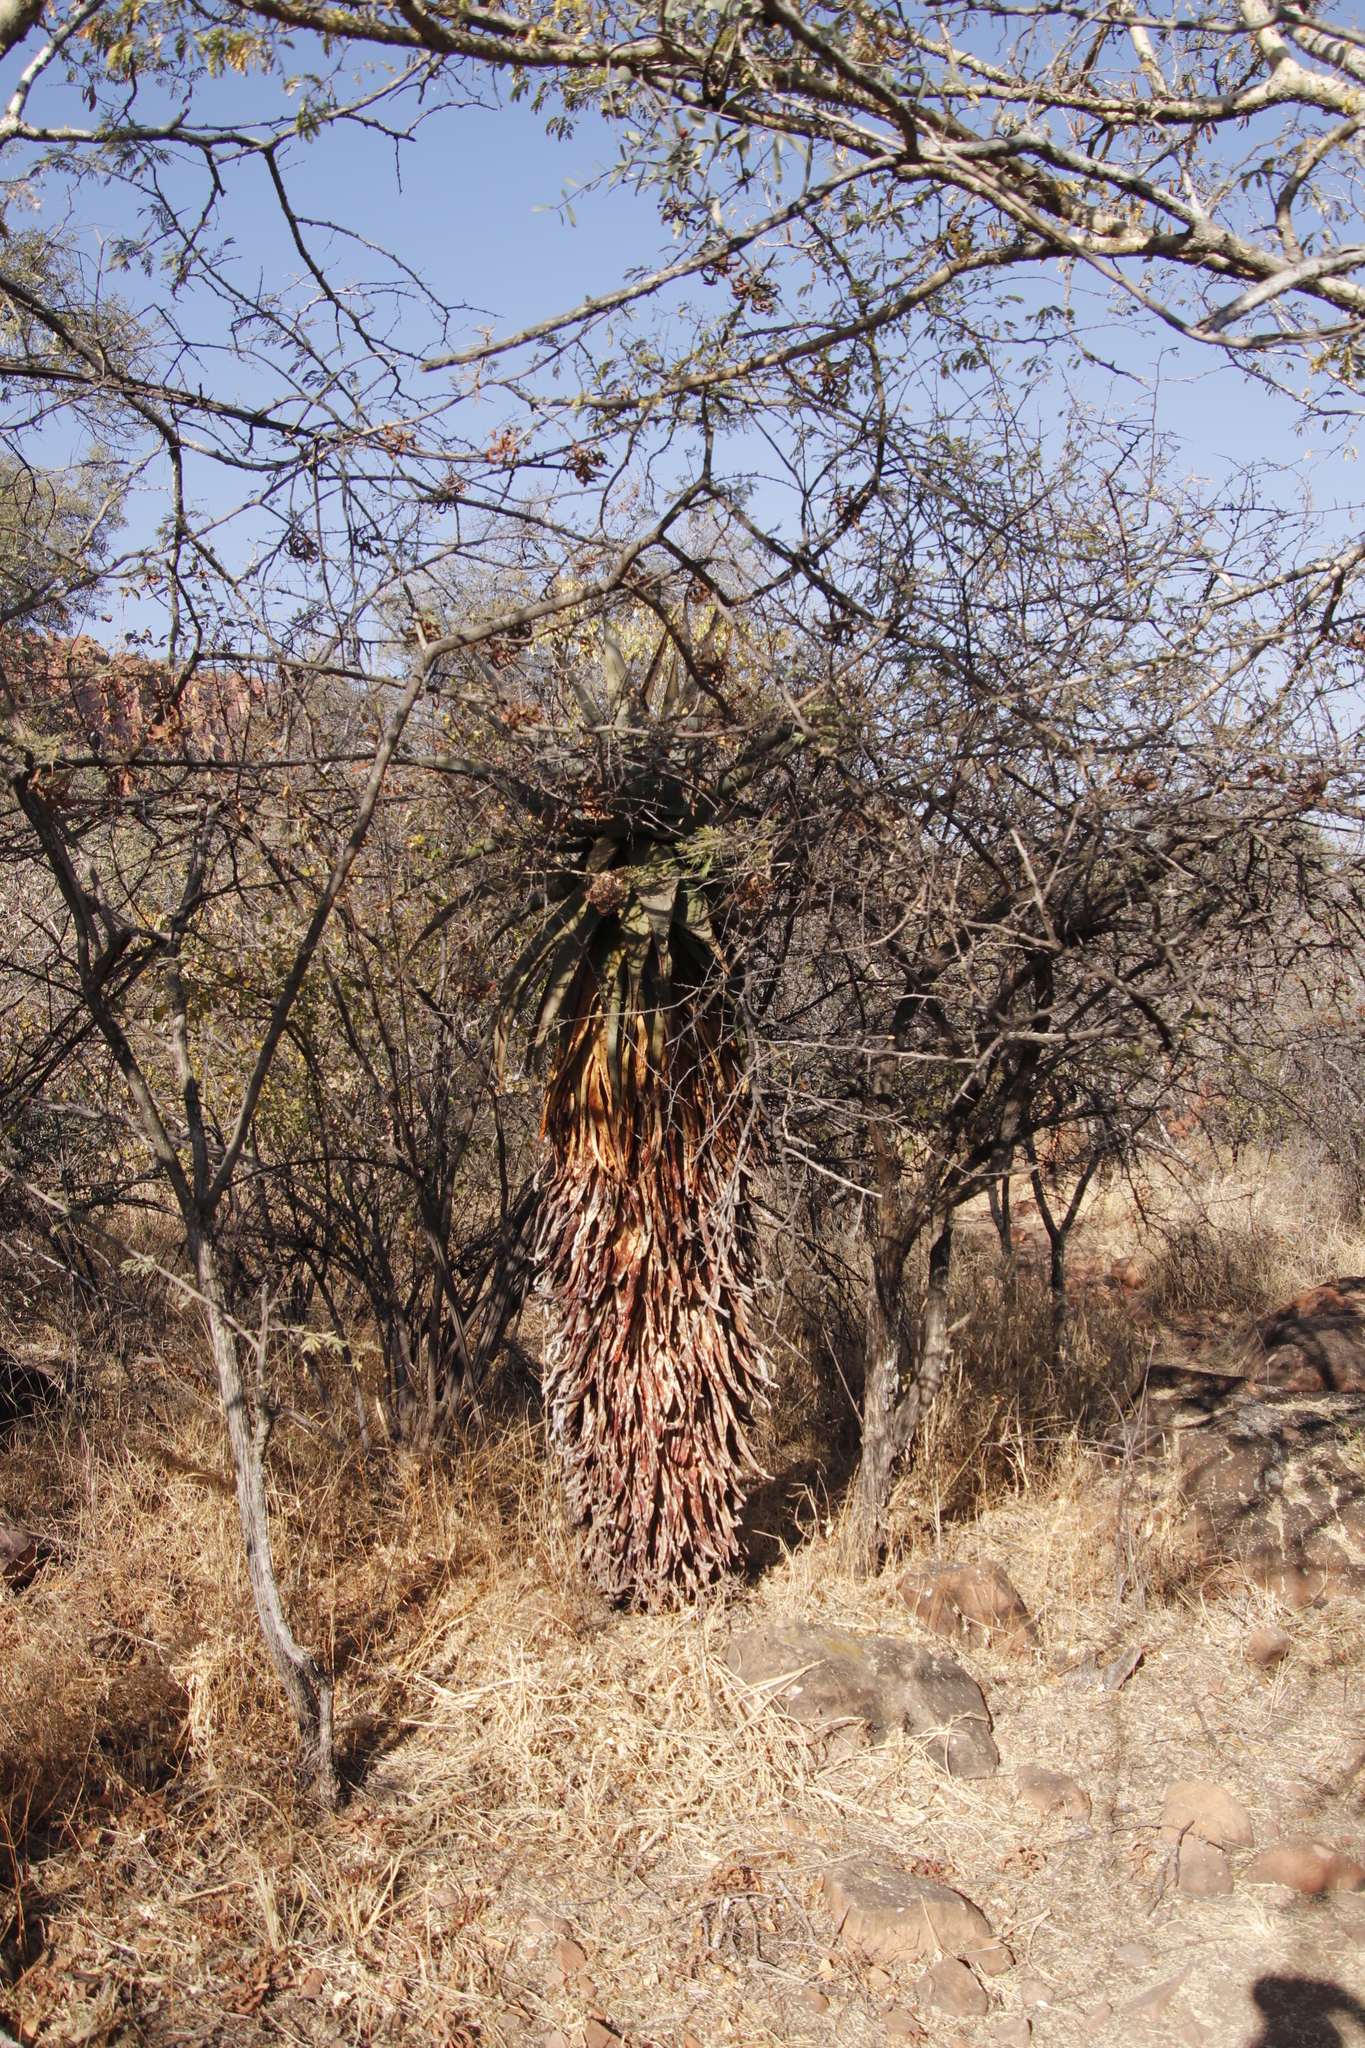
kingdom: Plantae
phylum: Tracheophyta
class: Liliopsida
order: Asparagales
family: Asphodelaceae
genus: Aloe
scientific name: Aloe littoralis
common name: Luanda tree aloe
